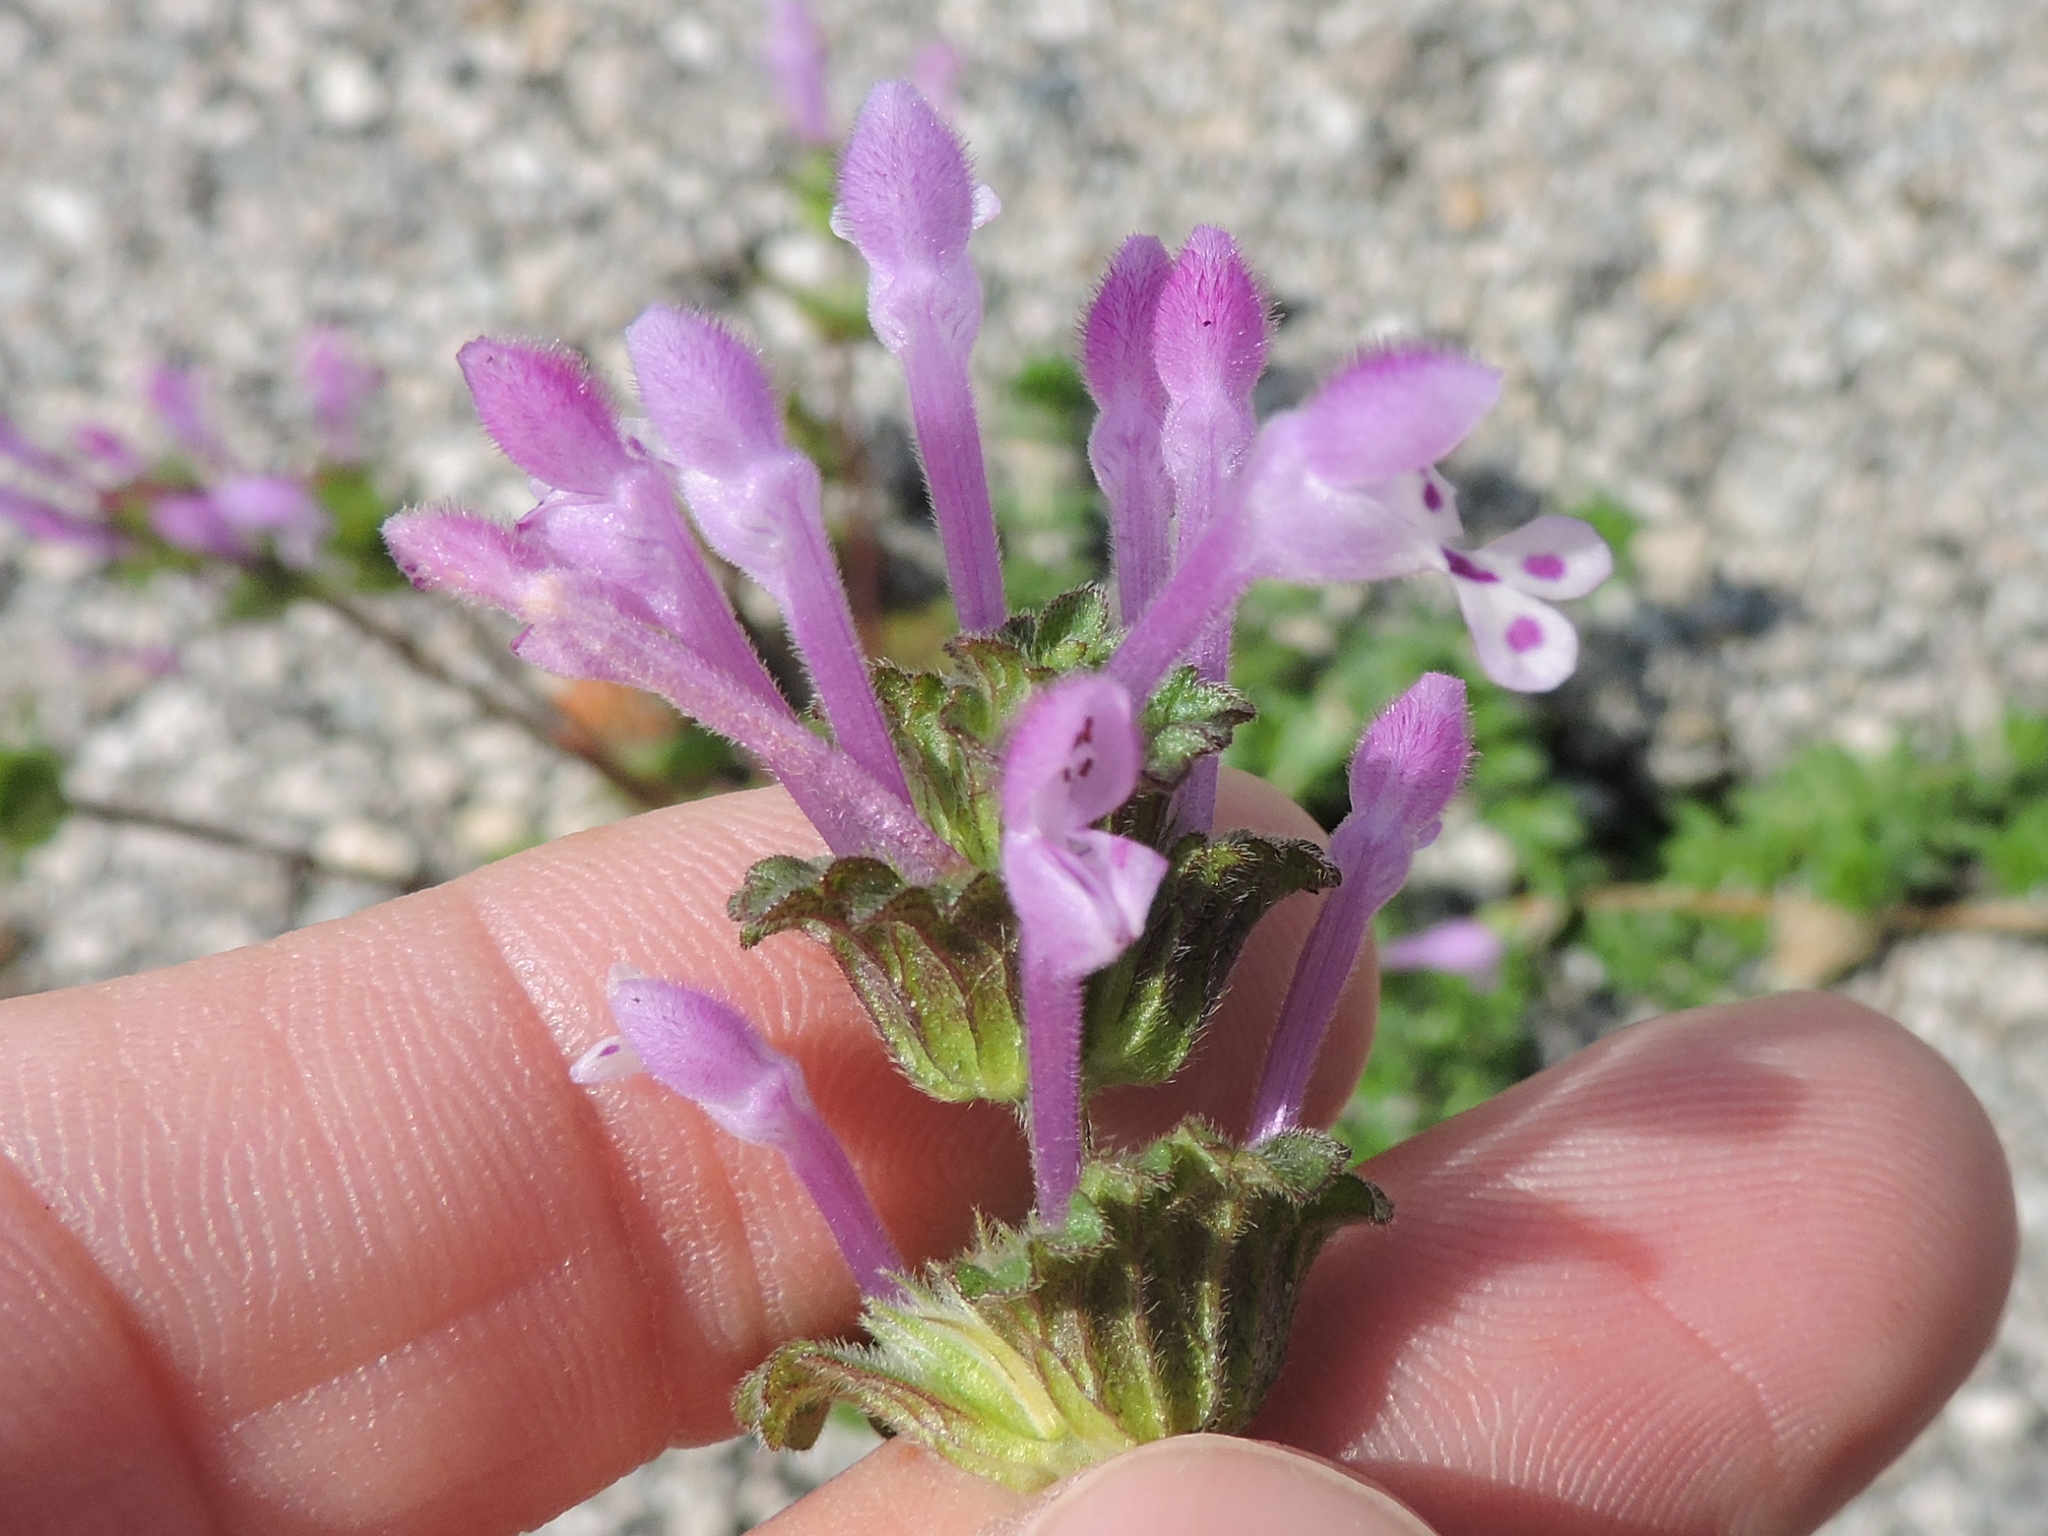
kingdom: Plantae
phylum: Tracheophyta
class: Magnoliopsida
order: Lamiales
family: Lamiaceae
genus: Lamium
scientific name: Lamium amplexicaule
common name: Henbit dead-nettle
